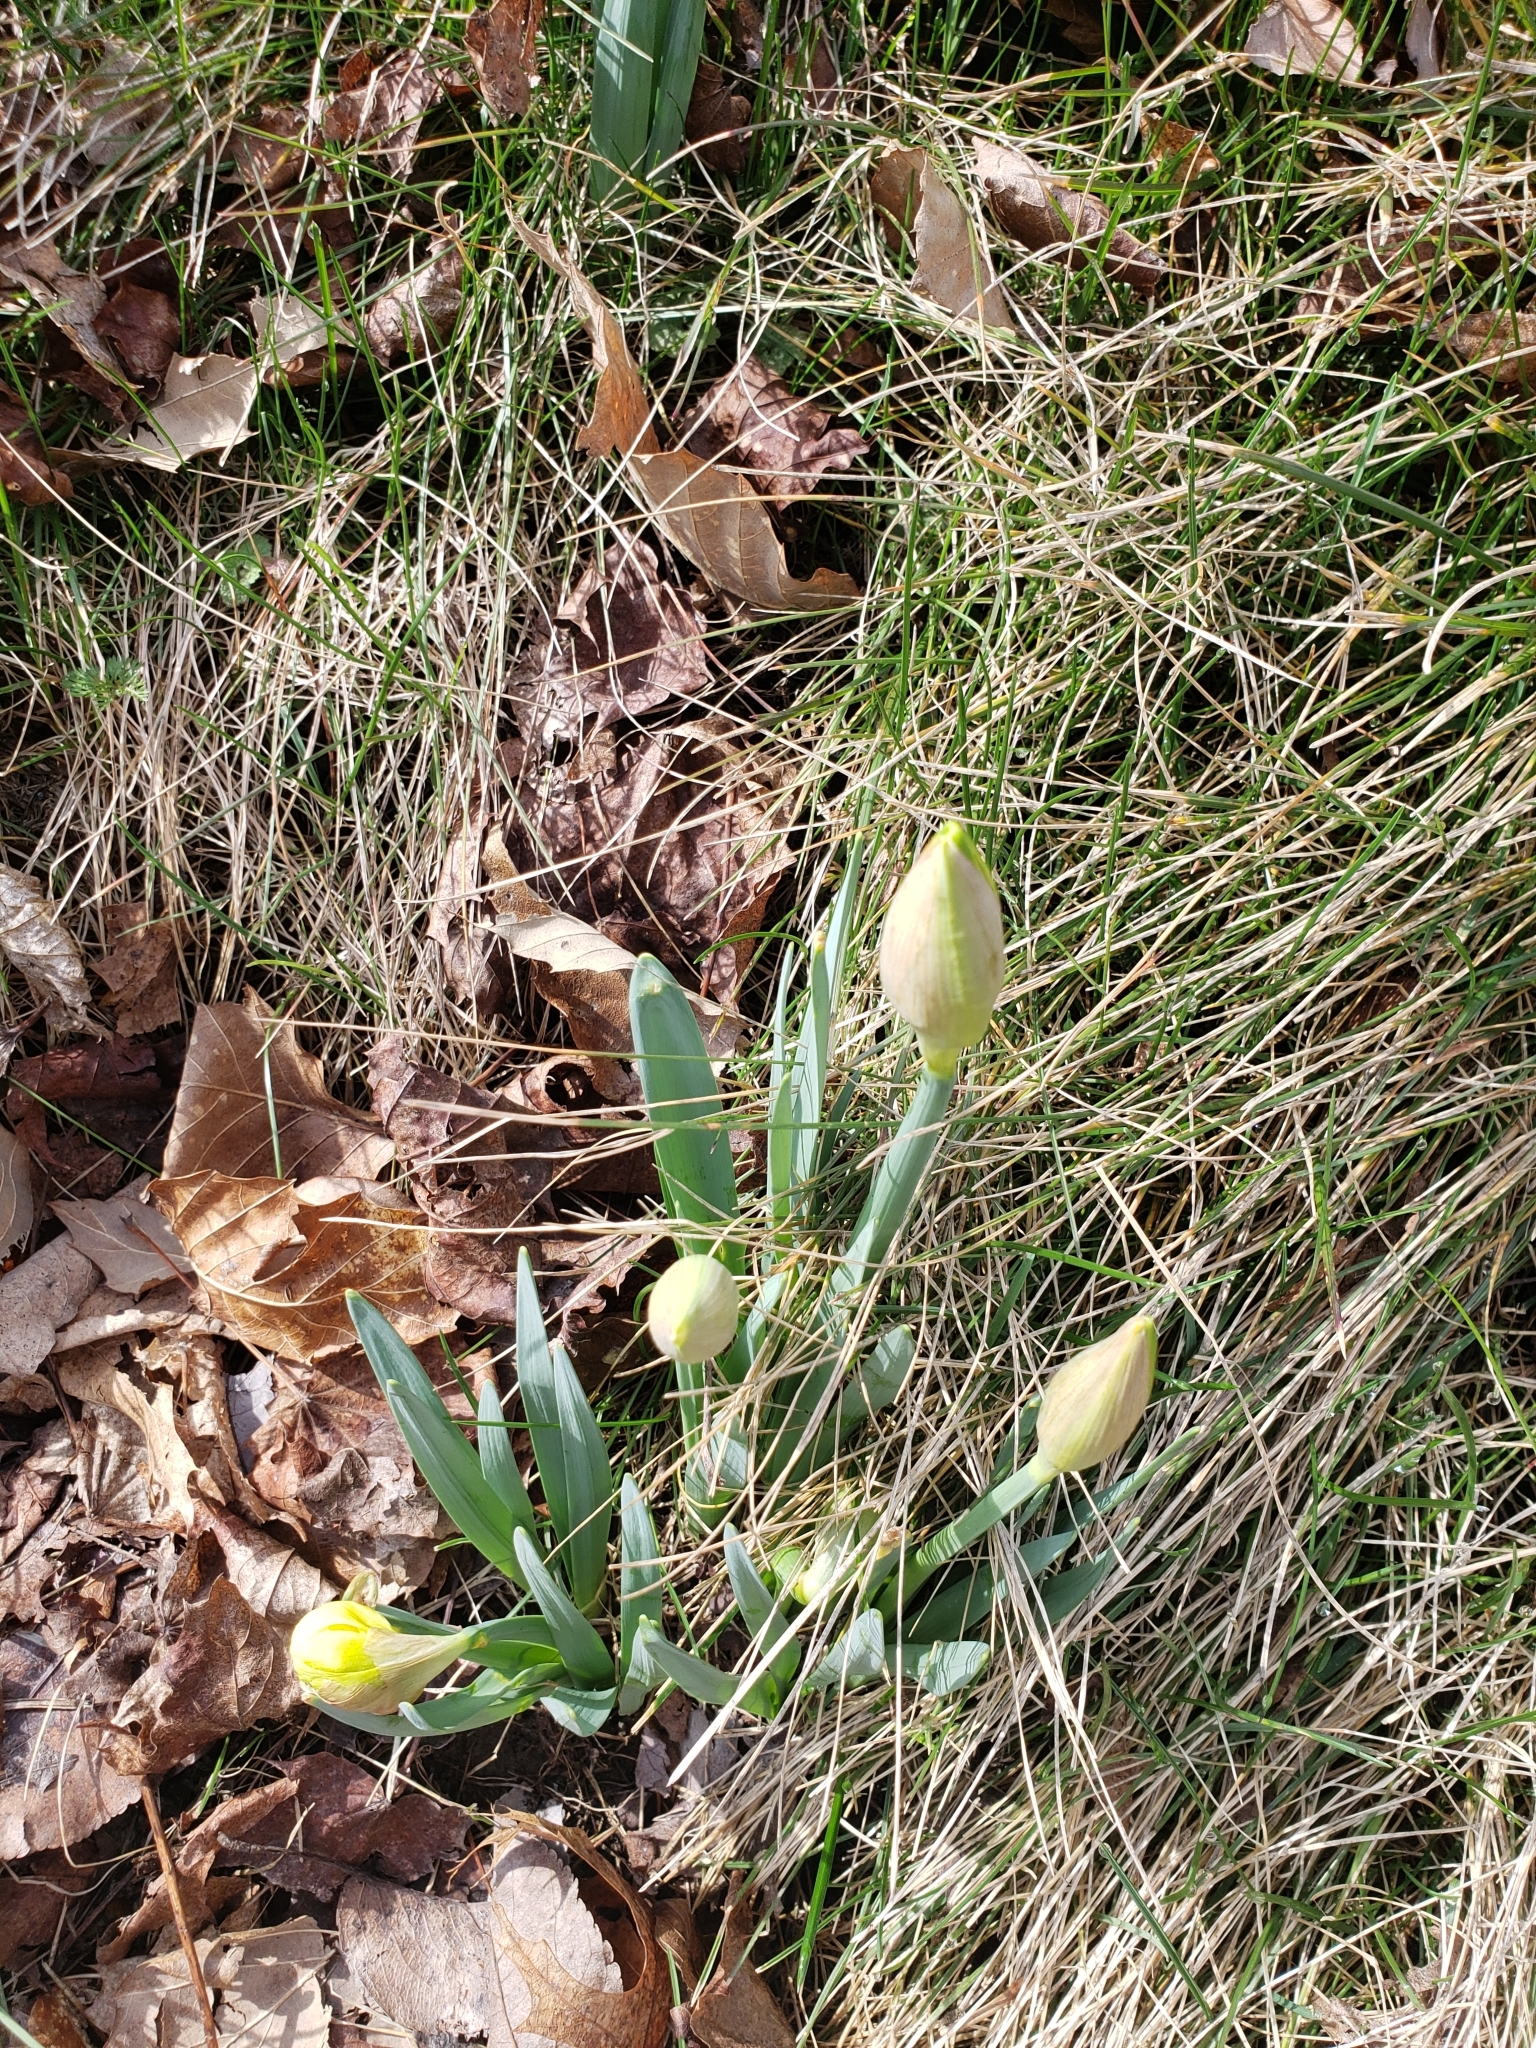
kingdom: Plantae
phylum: Tracheophyta
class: Liliopsida
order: Asparagales
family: Amaryllidaceae
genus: Narcissus
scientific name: Narcissus
